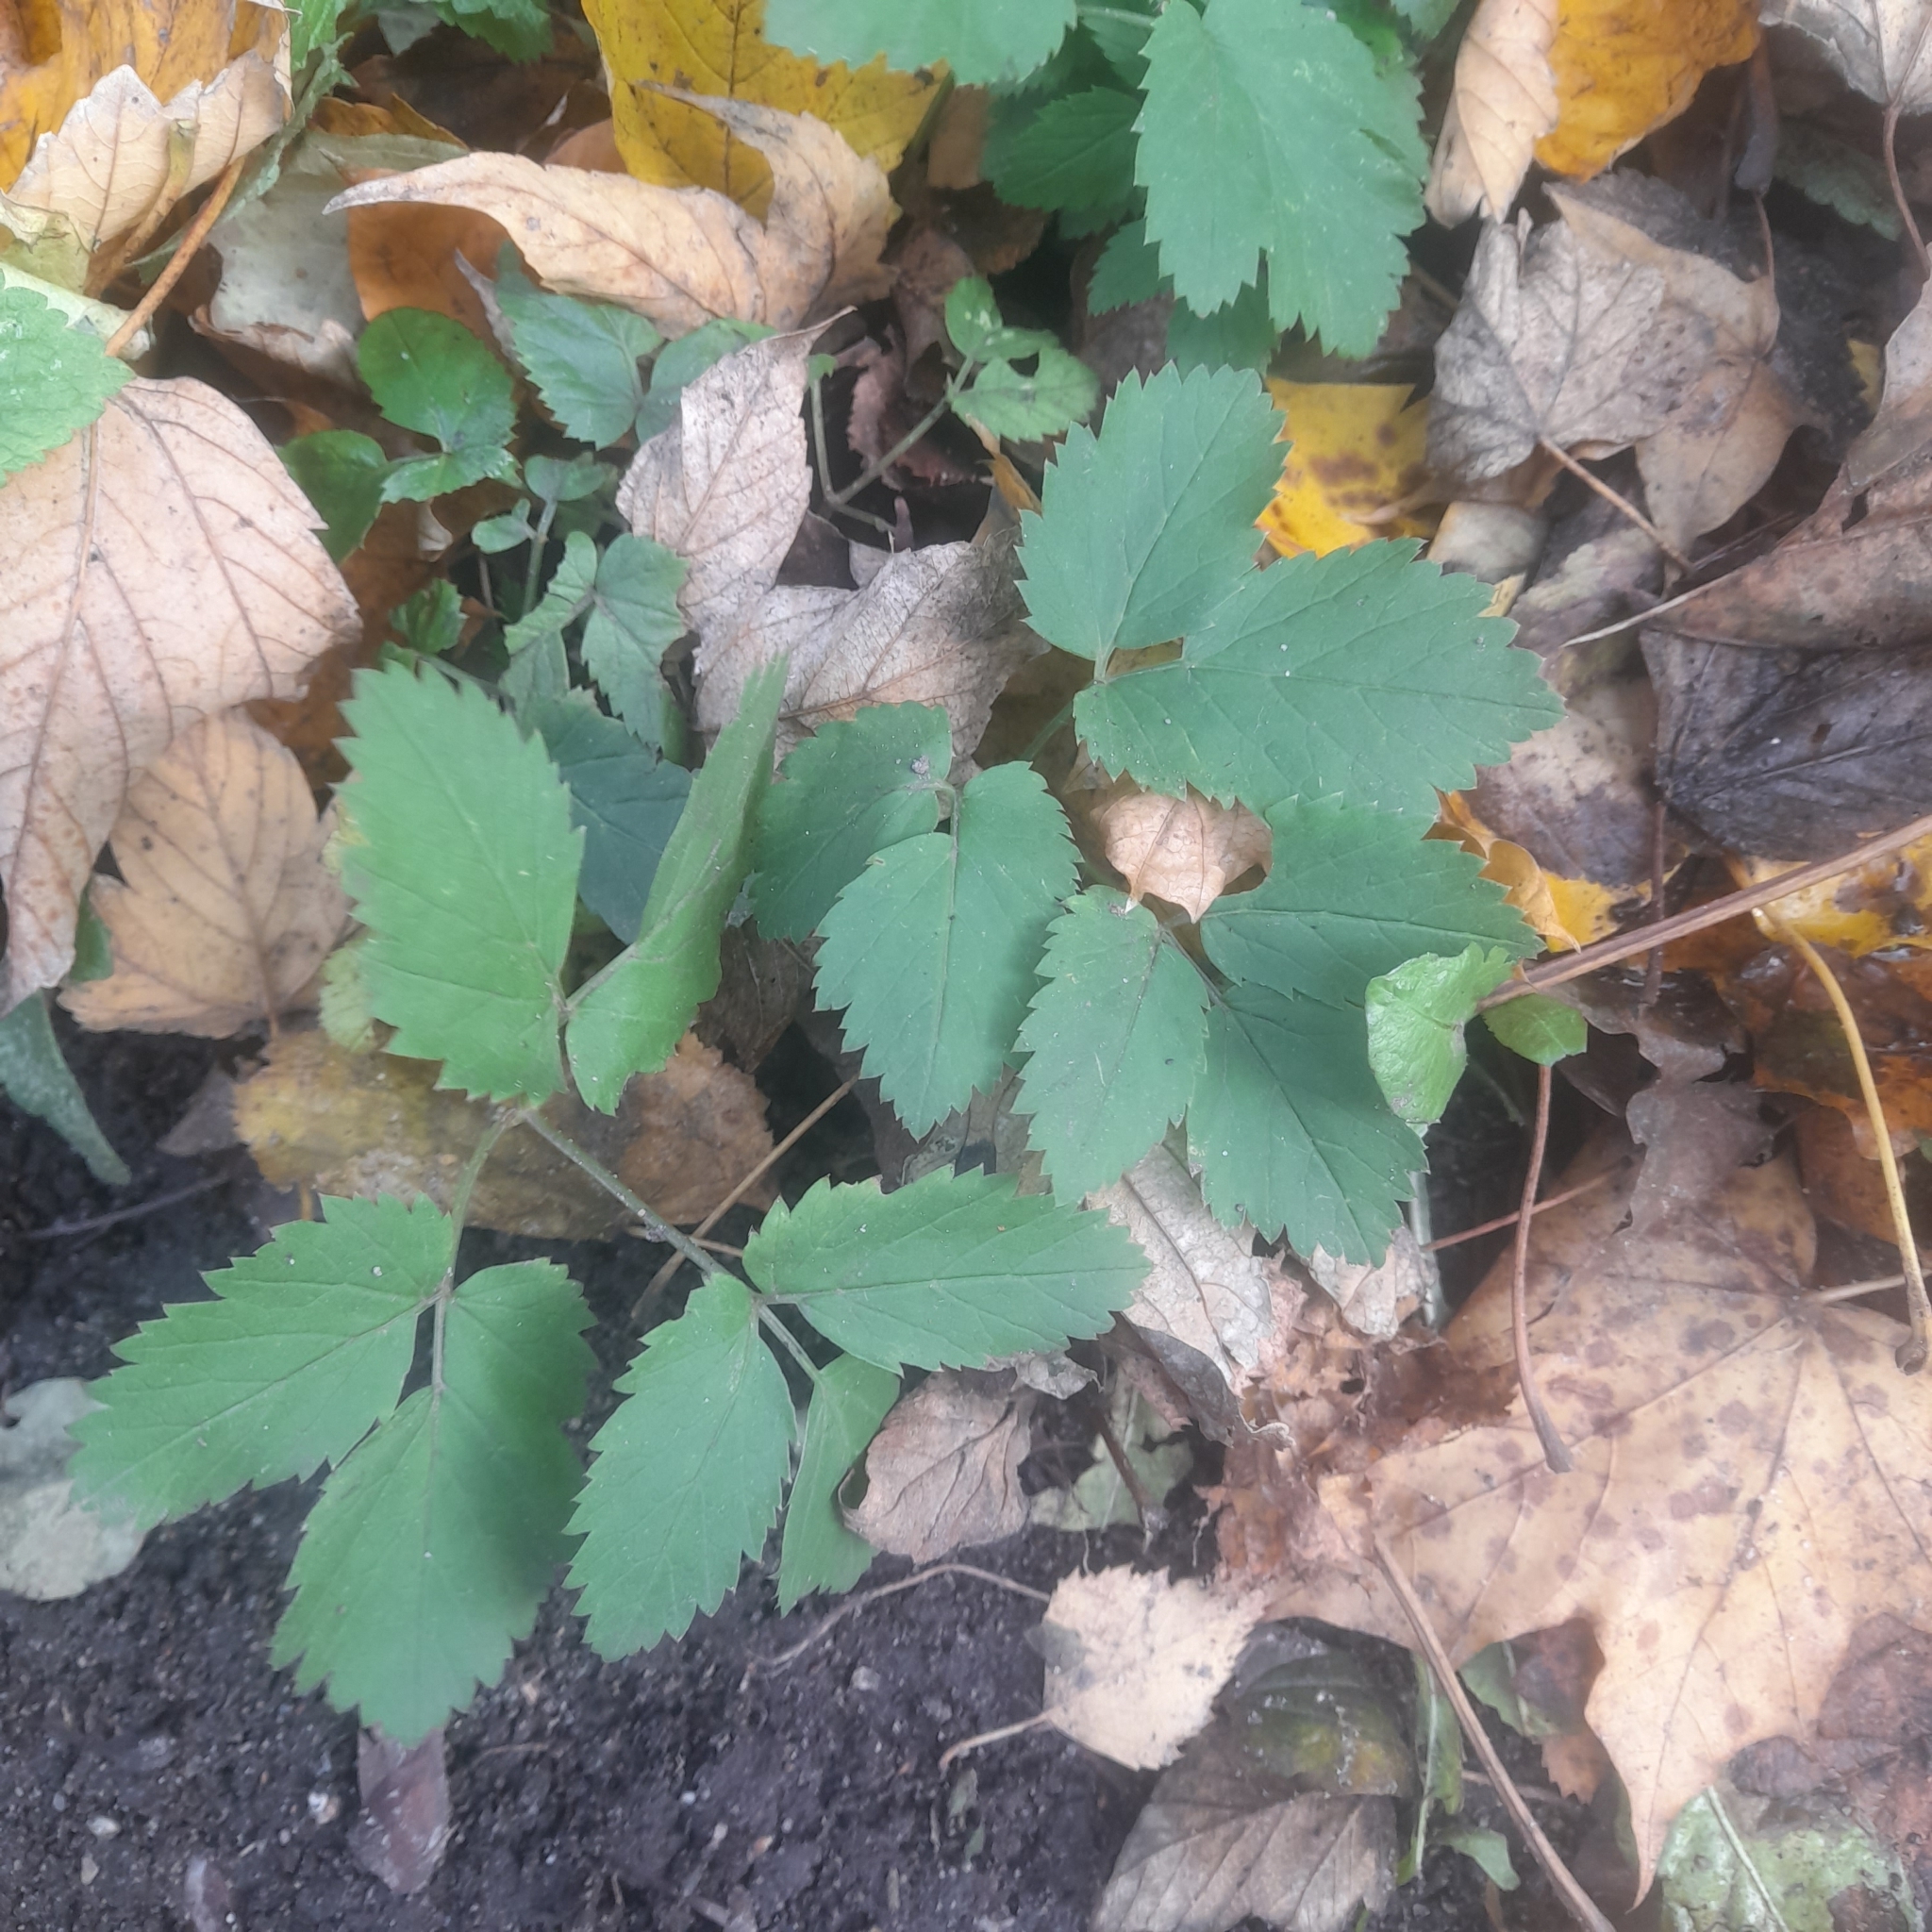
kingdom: Plantae
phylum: Tracheophyta
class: Magnoliopsida
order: Apiales
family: Apiaceae
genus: Aegopodium
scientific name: Aegopodium podagraria
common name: Ground-elder
